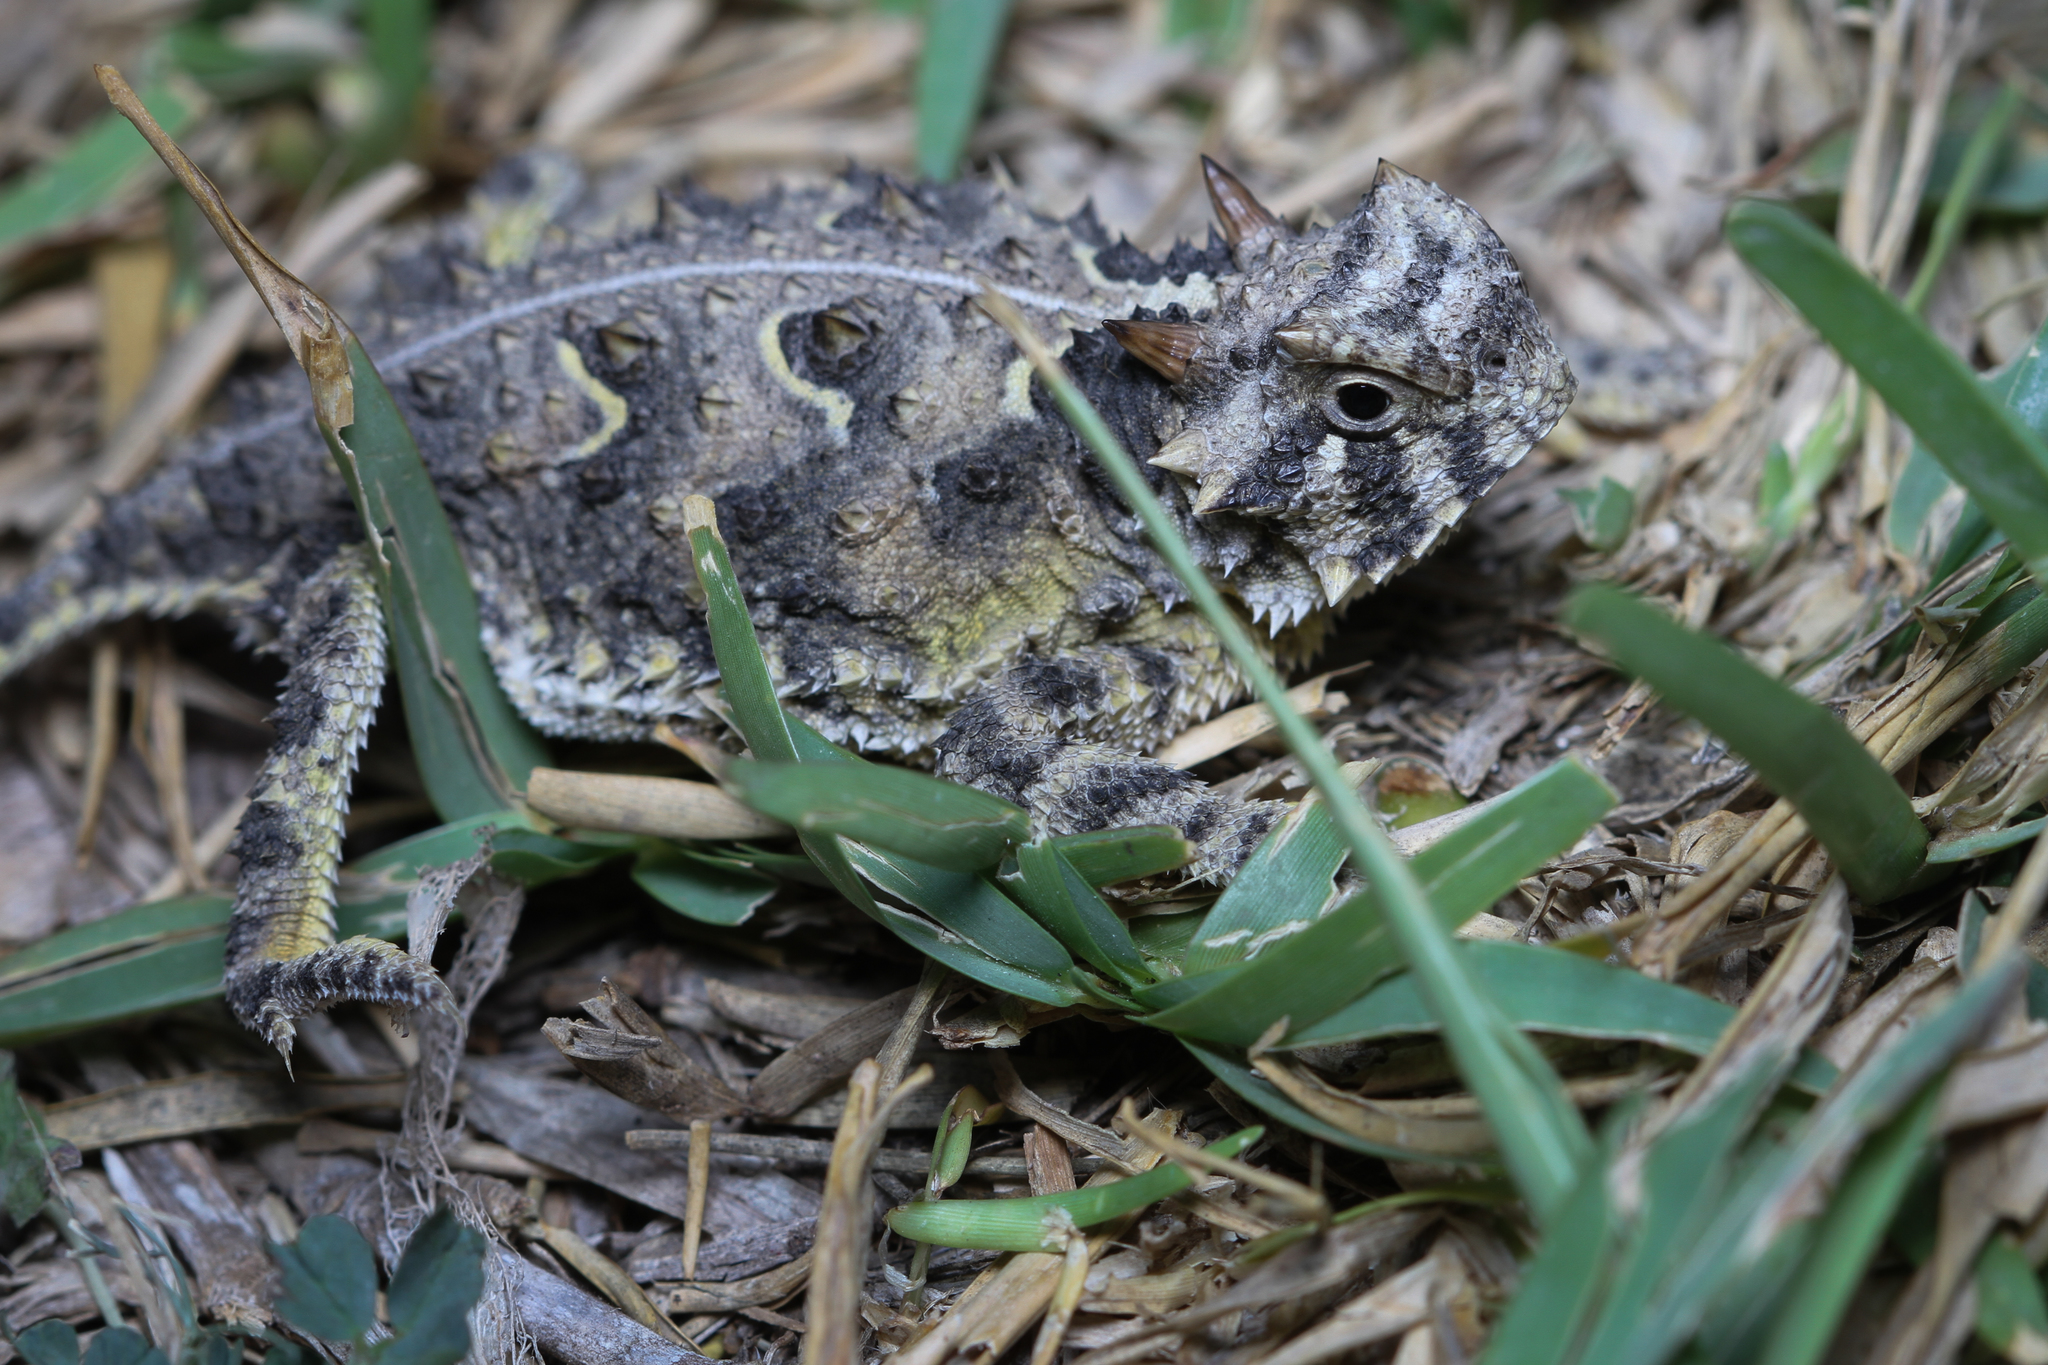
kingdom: Animalia
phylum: Chordata
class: Squamata
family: Phrynosomatidae
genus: Phrynosoma
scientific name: Phrynosoma cornutum
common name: Texas horned lizard
